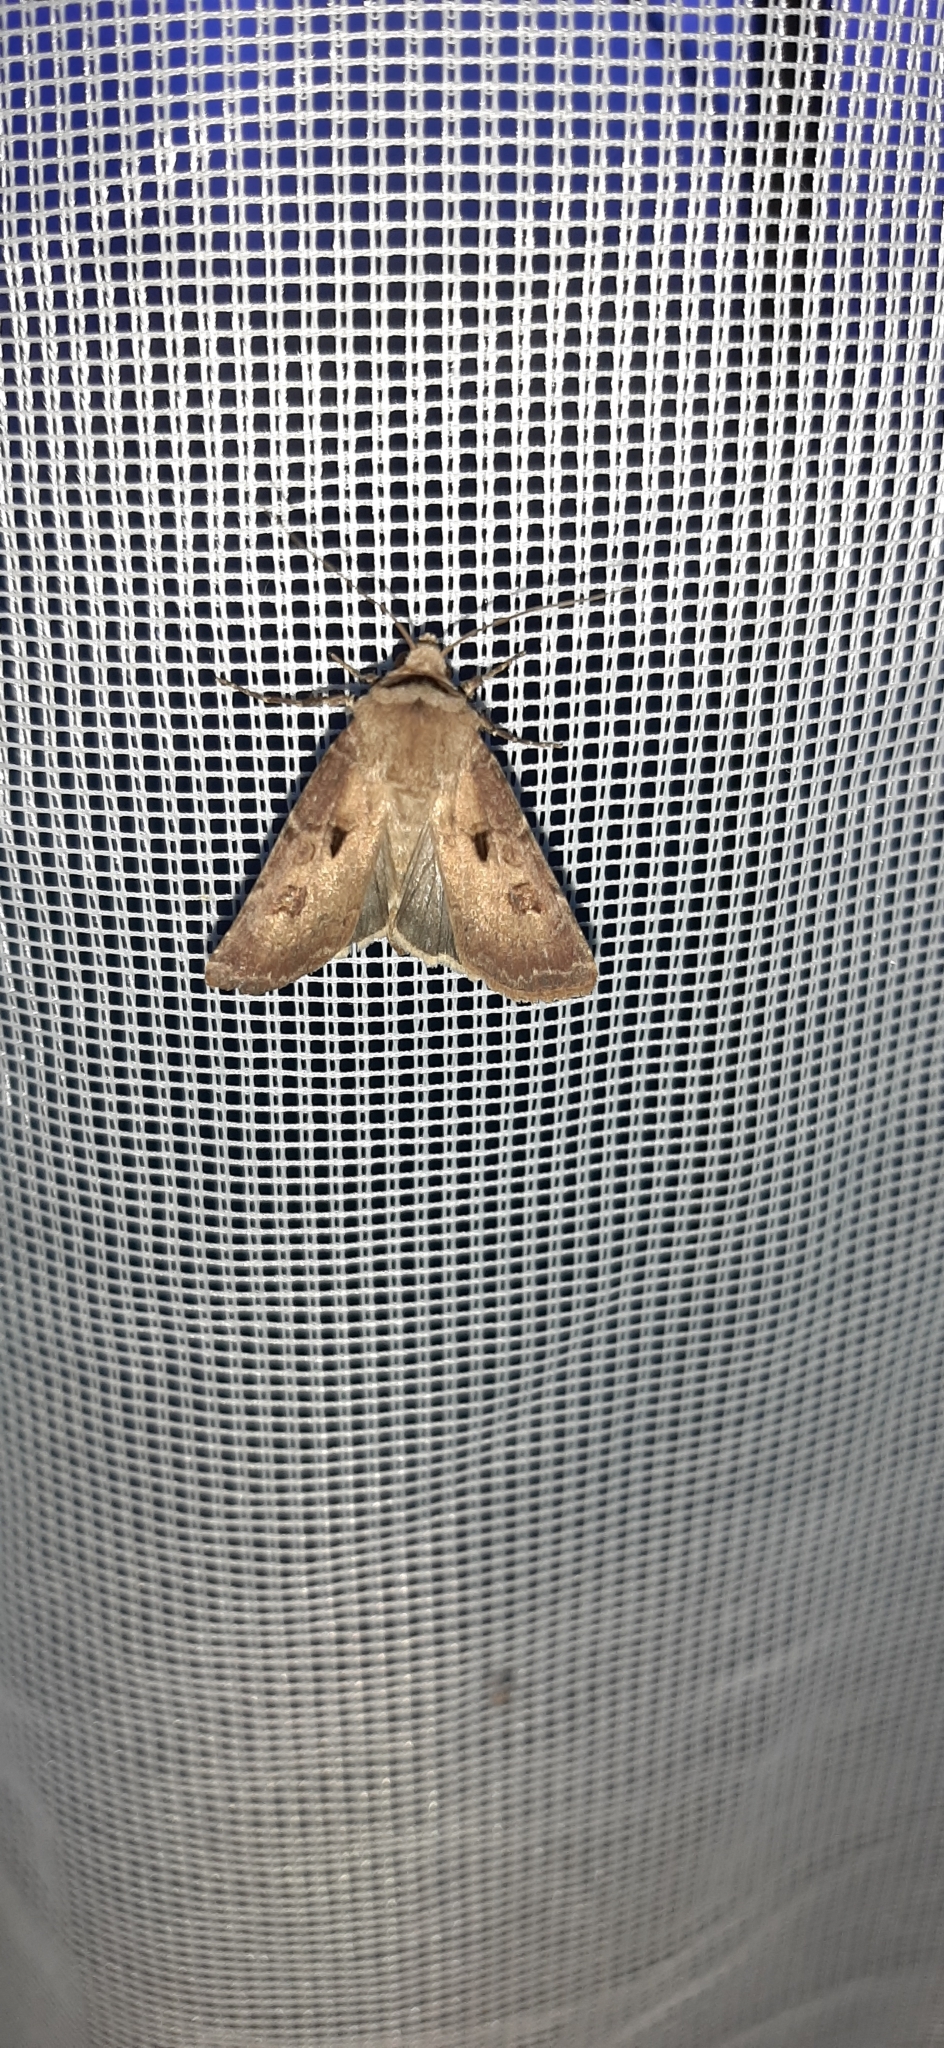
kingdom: Animalia
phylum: Arthropoda
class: Insecta
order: Lepidoptera
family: Noctuidae
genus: Agrotis
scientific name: Agrotis exclamationis
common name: Heart and dart
